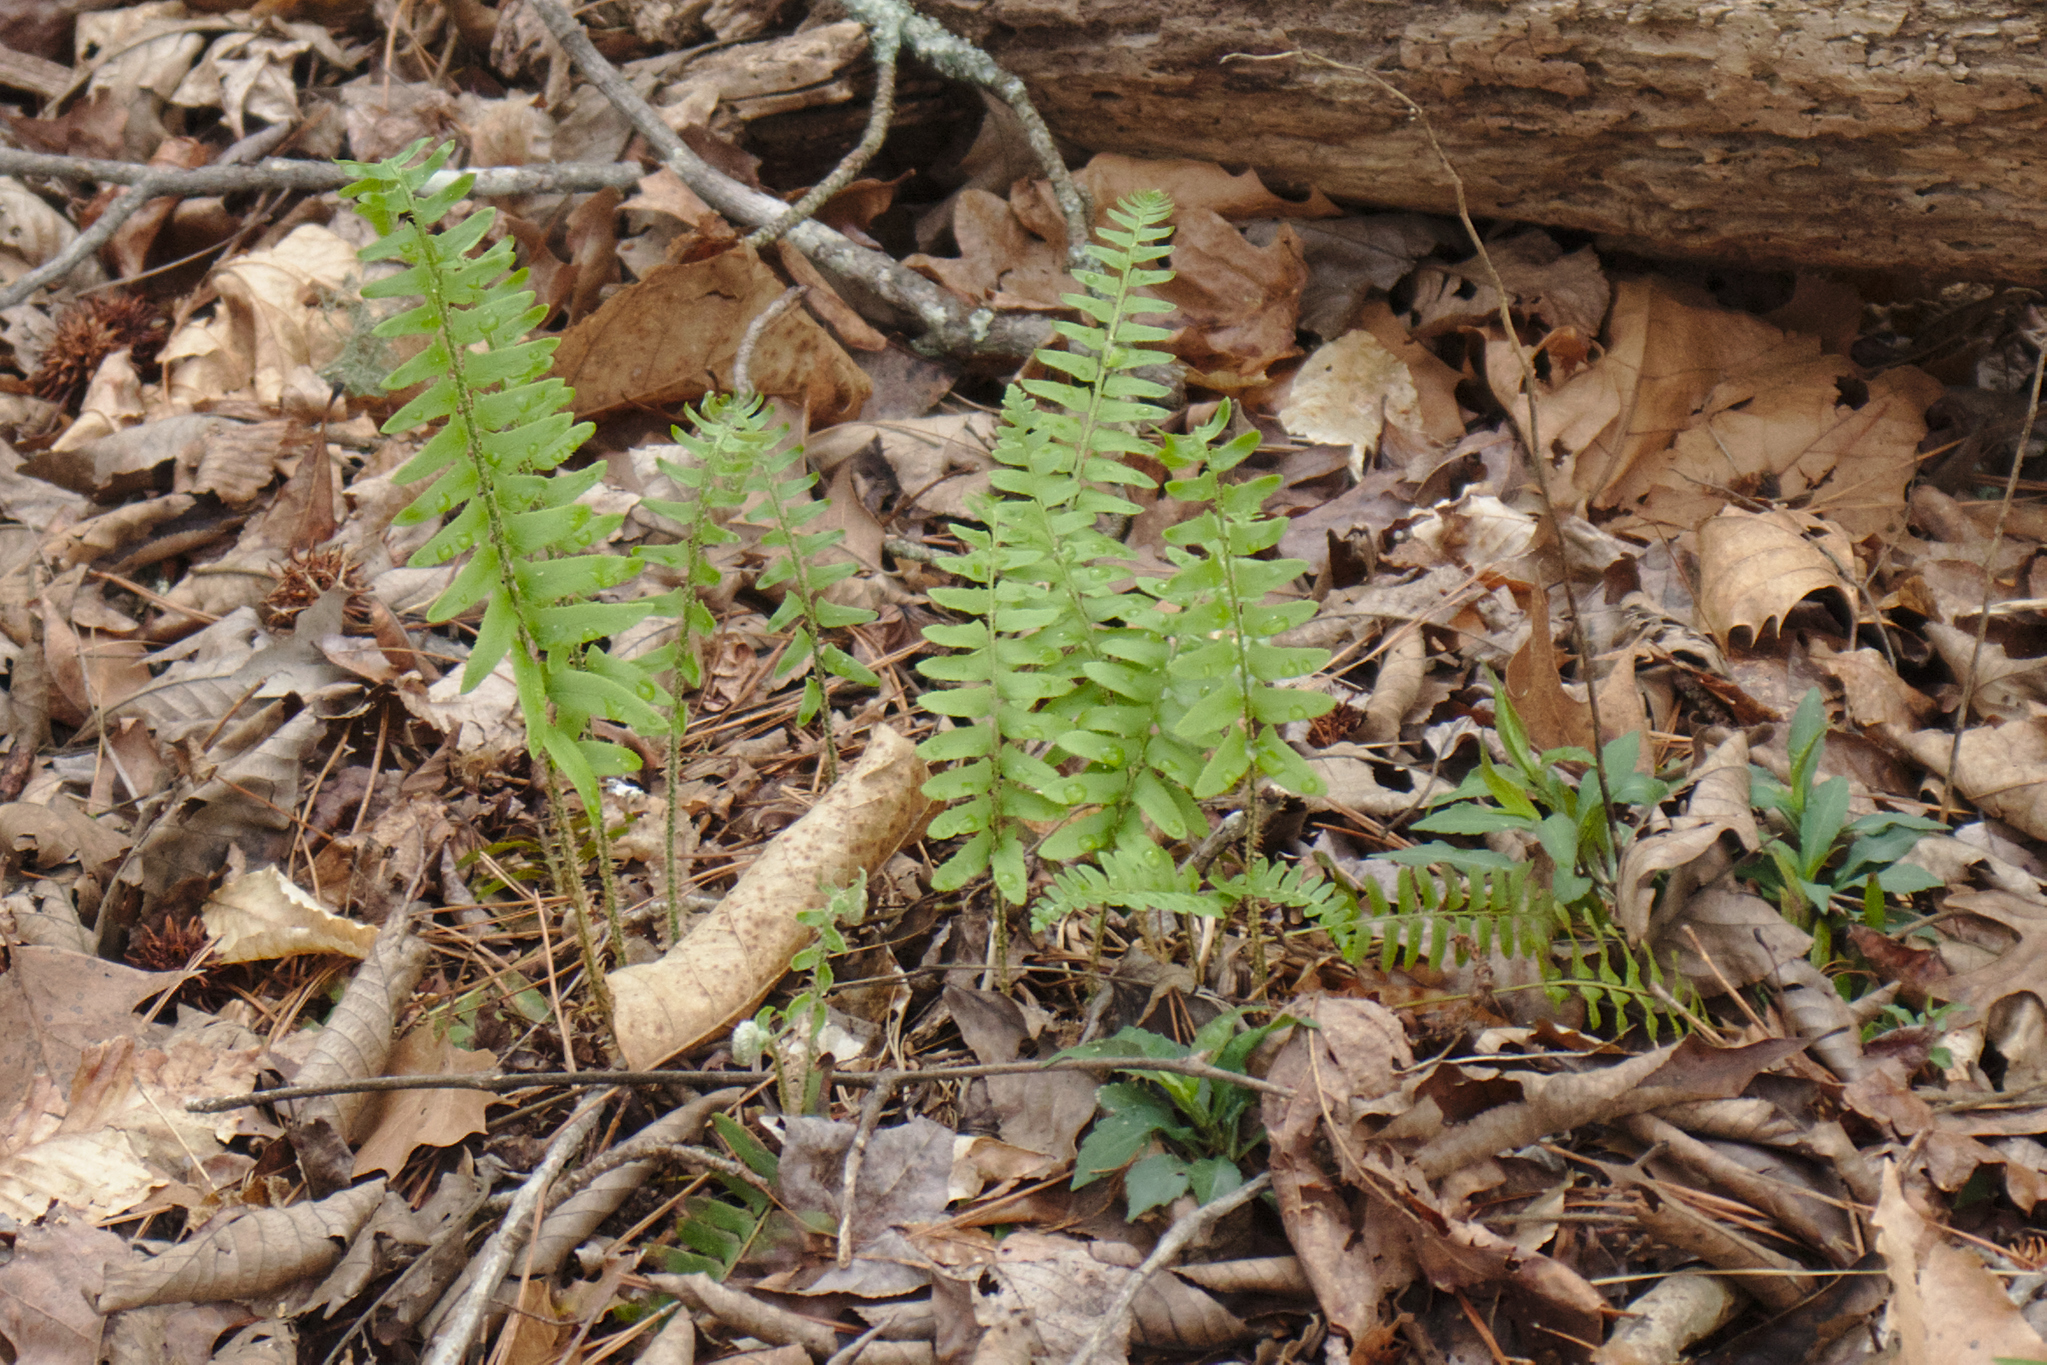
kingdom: Plantae
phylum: Tracheophyta
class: Polypodiopsida
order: Polypodiales
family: Dryopteridaceae
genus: Polystichum
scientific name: Polystichum acrostichoides
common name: Christmas fern
